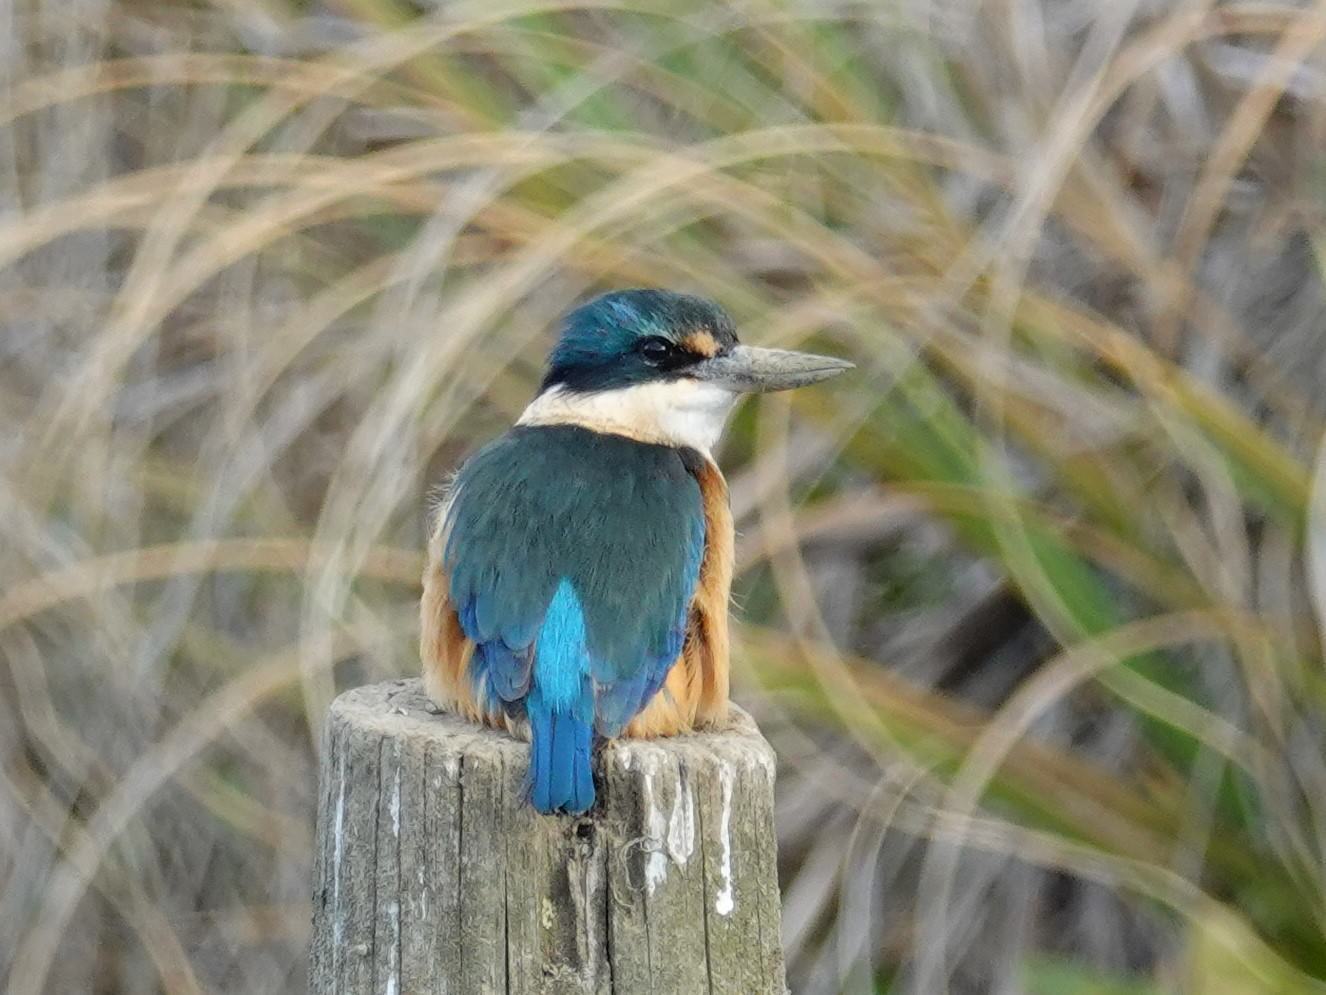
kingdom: Animalia
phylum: Chordata
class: Aves
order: Coraciiformes
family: Alcedinidae
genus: Todiramphus
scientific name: Todiramphus sanctus
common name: Sacred kingfisher
